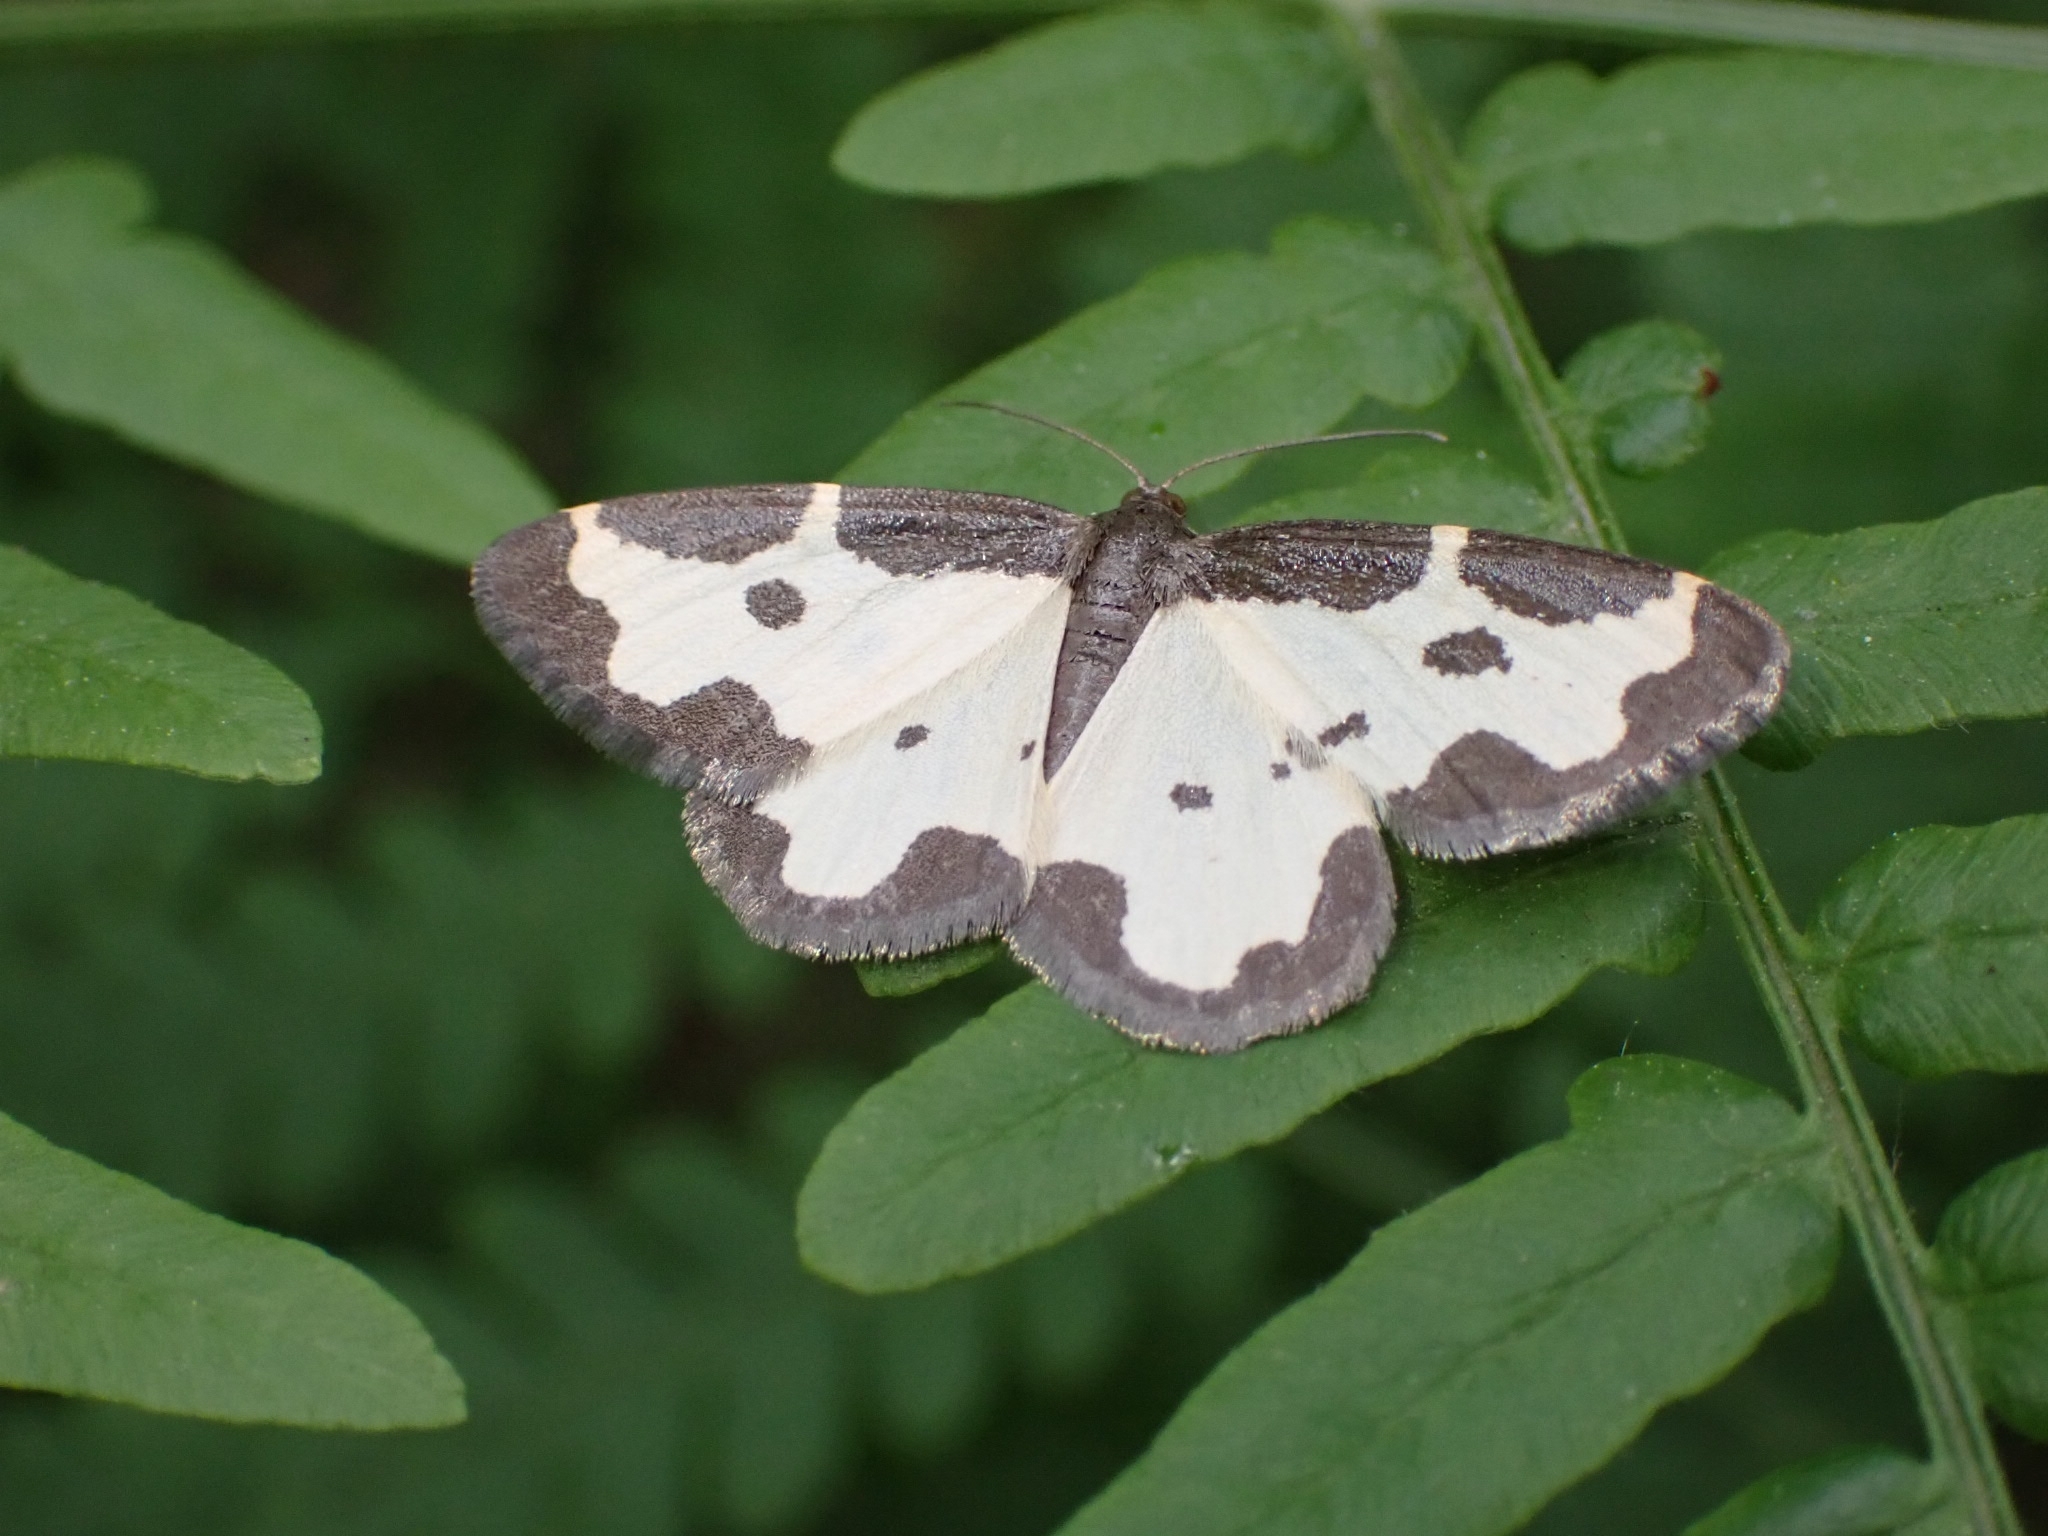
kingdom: Animalia
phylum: Arthropoda
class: Insecta
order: Lepidoptera
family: Geometridae
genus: Lomaspilis
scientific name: Lomaspilis marginata
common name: Clouded border
